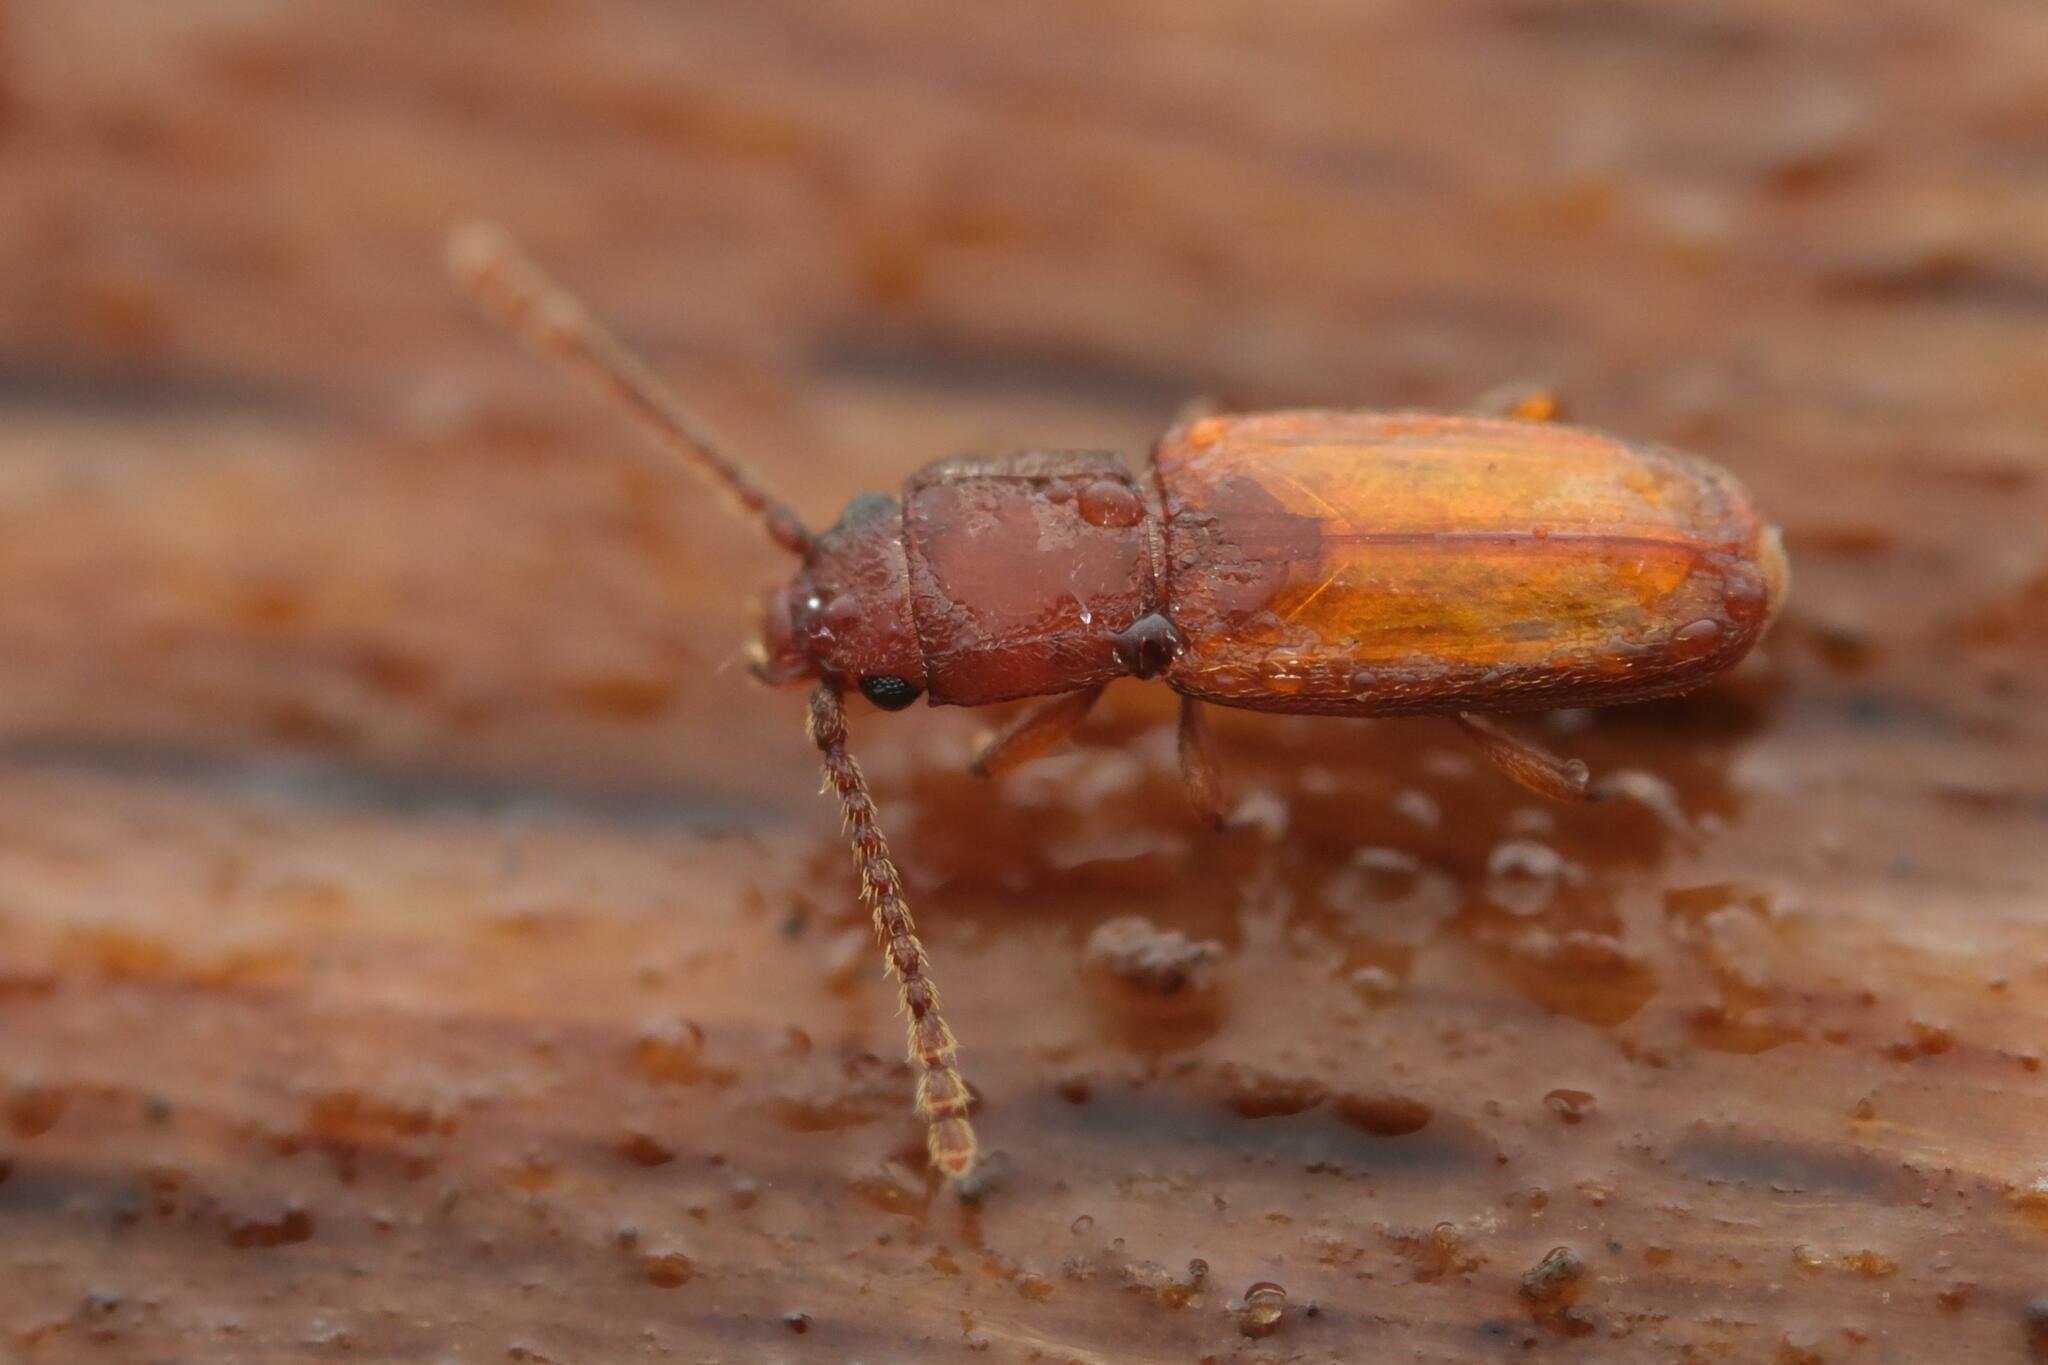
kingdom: Animalia
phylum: Arthropoda
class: Insecta
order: Coleoptera
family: Laemophloeidae
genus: Placonotus
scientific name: Placonotus testaceus
